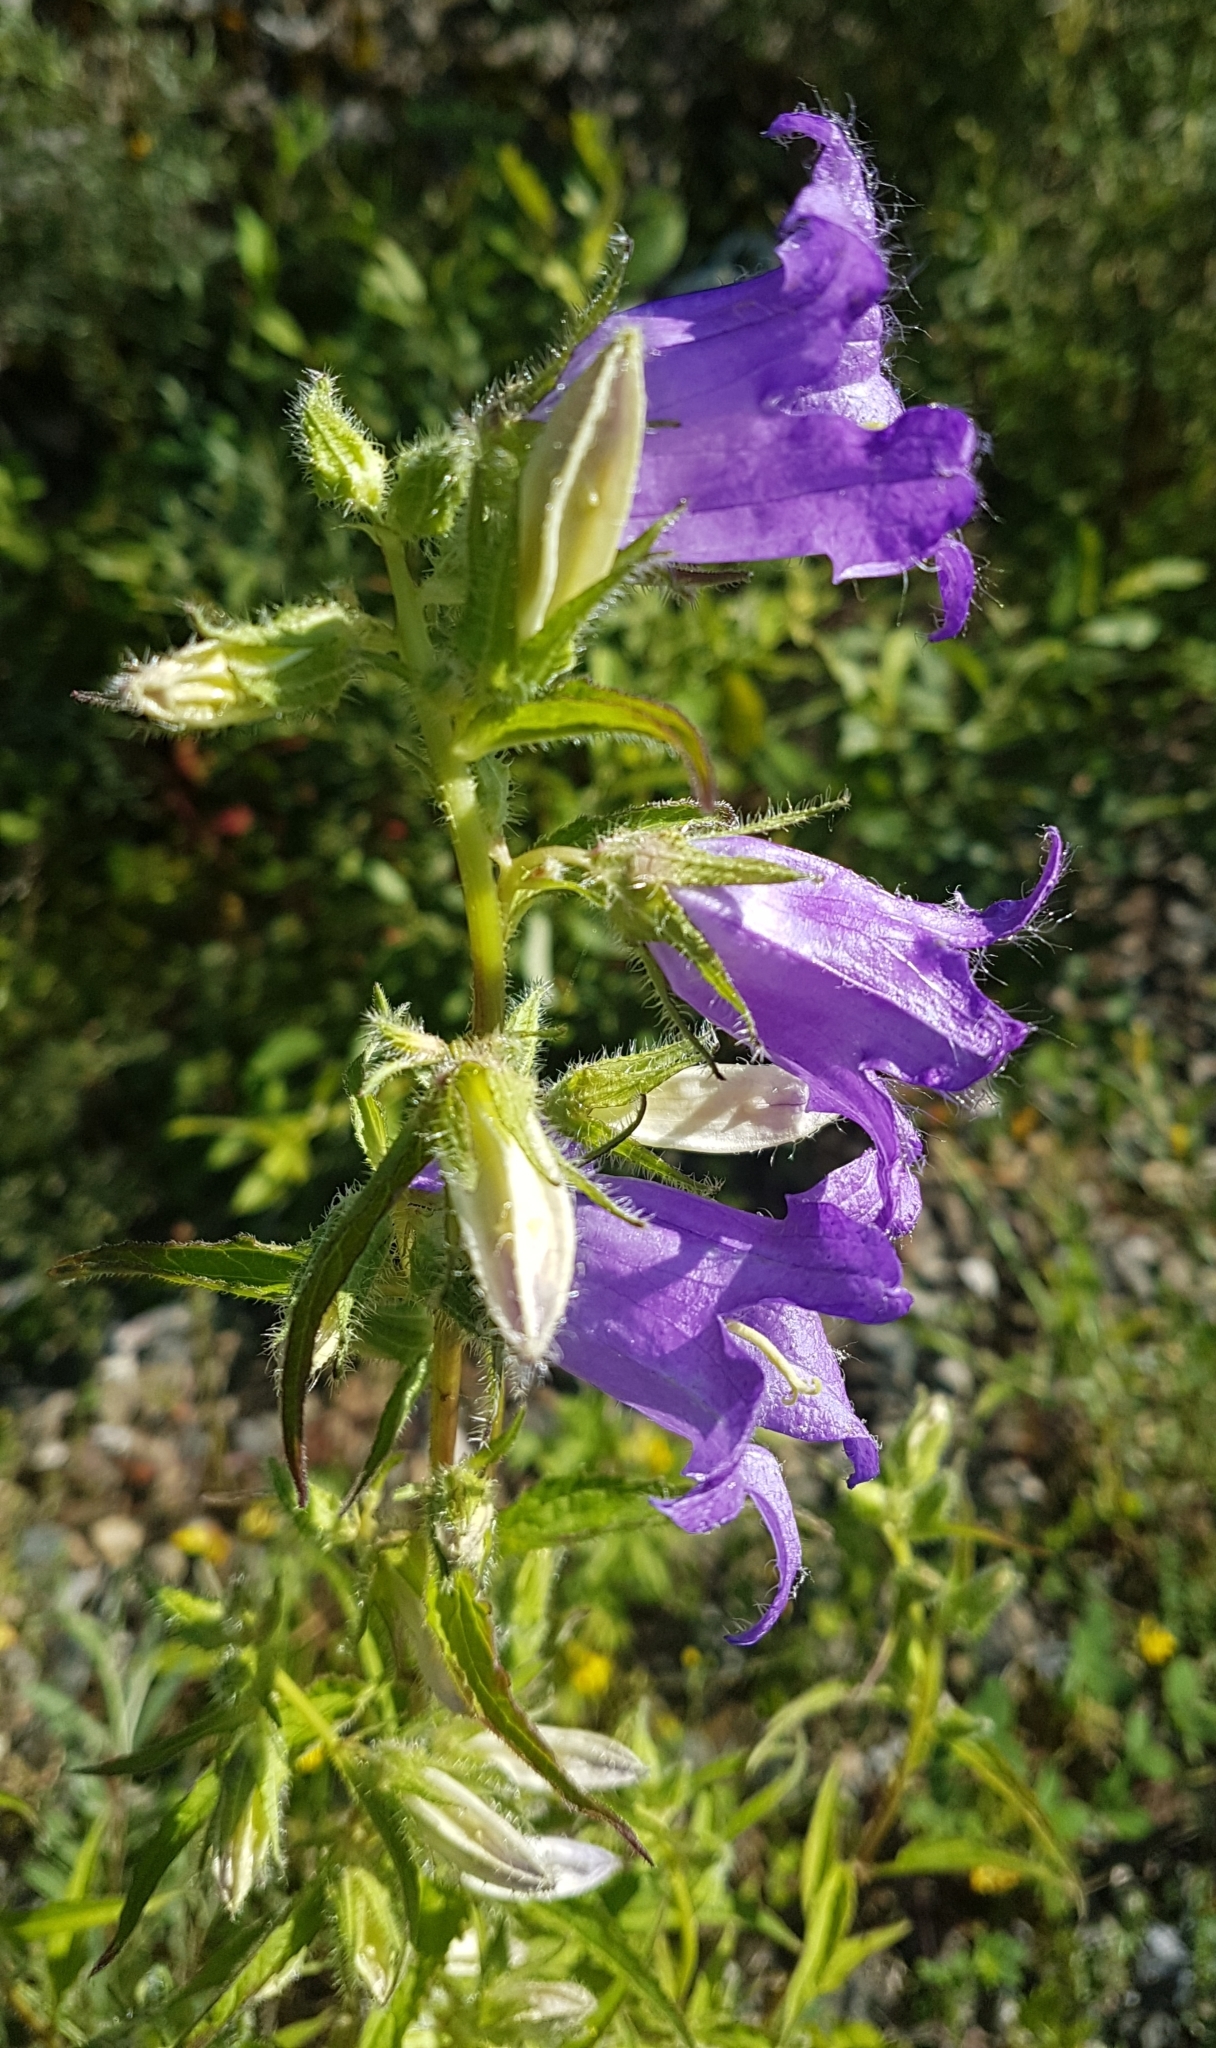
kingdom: Plantae
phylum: Tracheophyta
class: Magnoliopsida
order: Asterales
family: Campanulaceae
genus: Campanula
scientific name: Campanula trachelium
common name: Nettle-leaved bellflower
